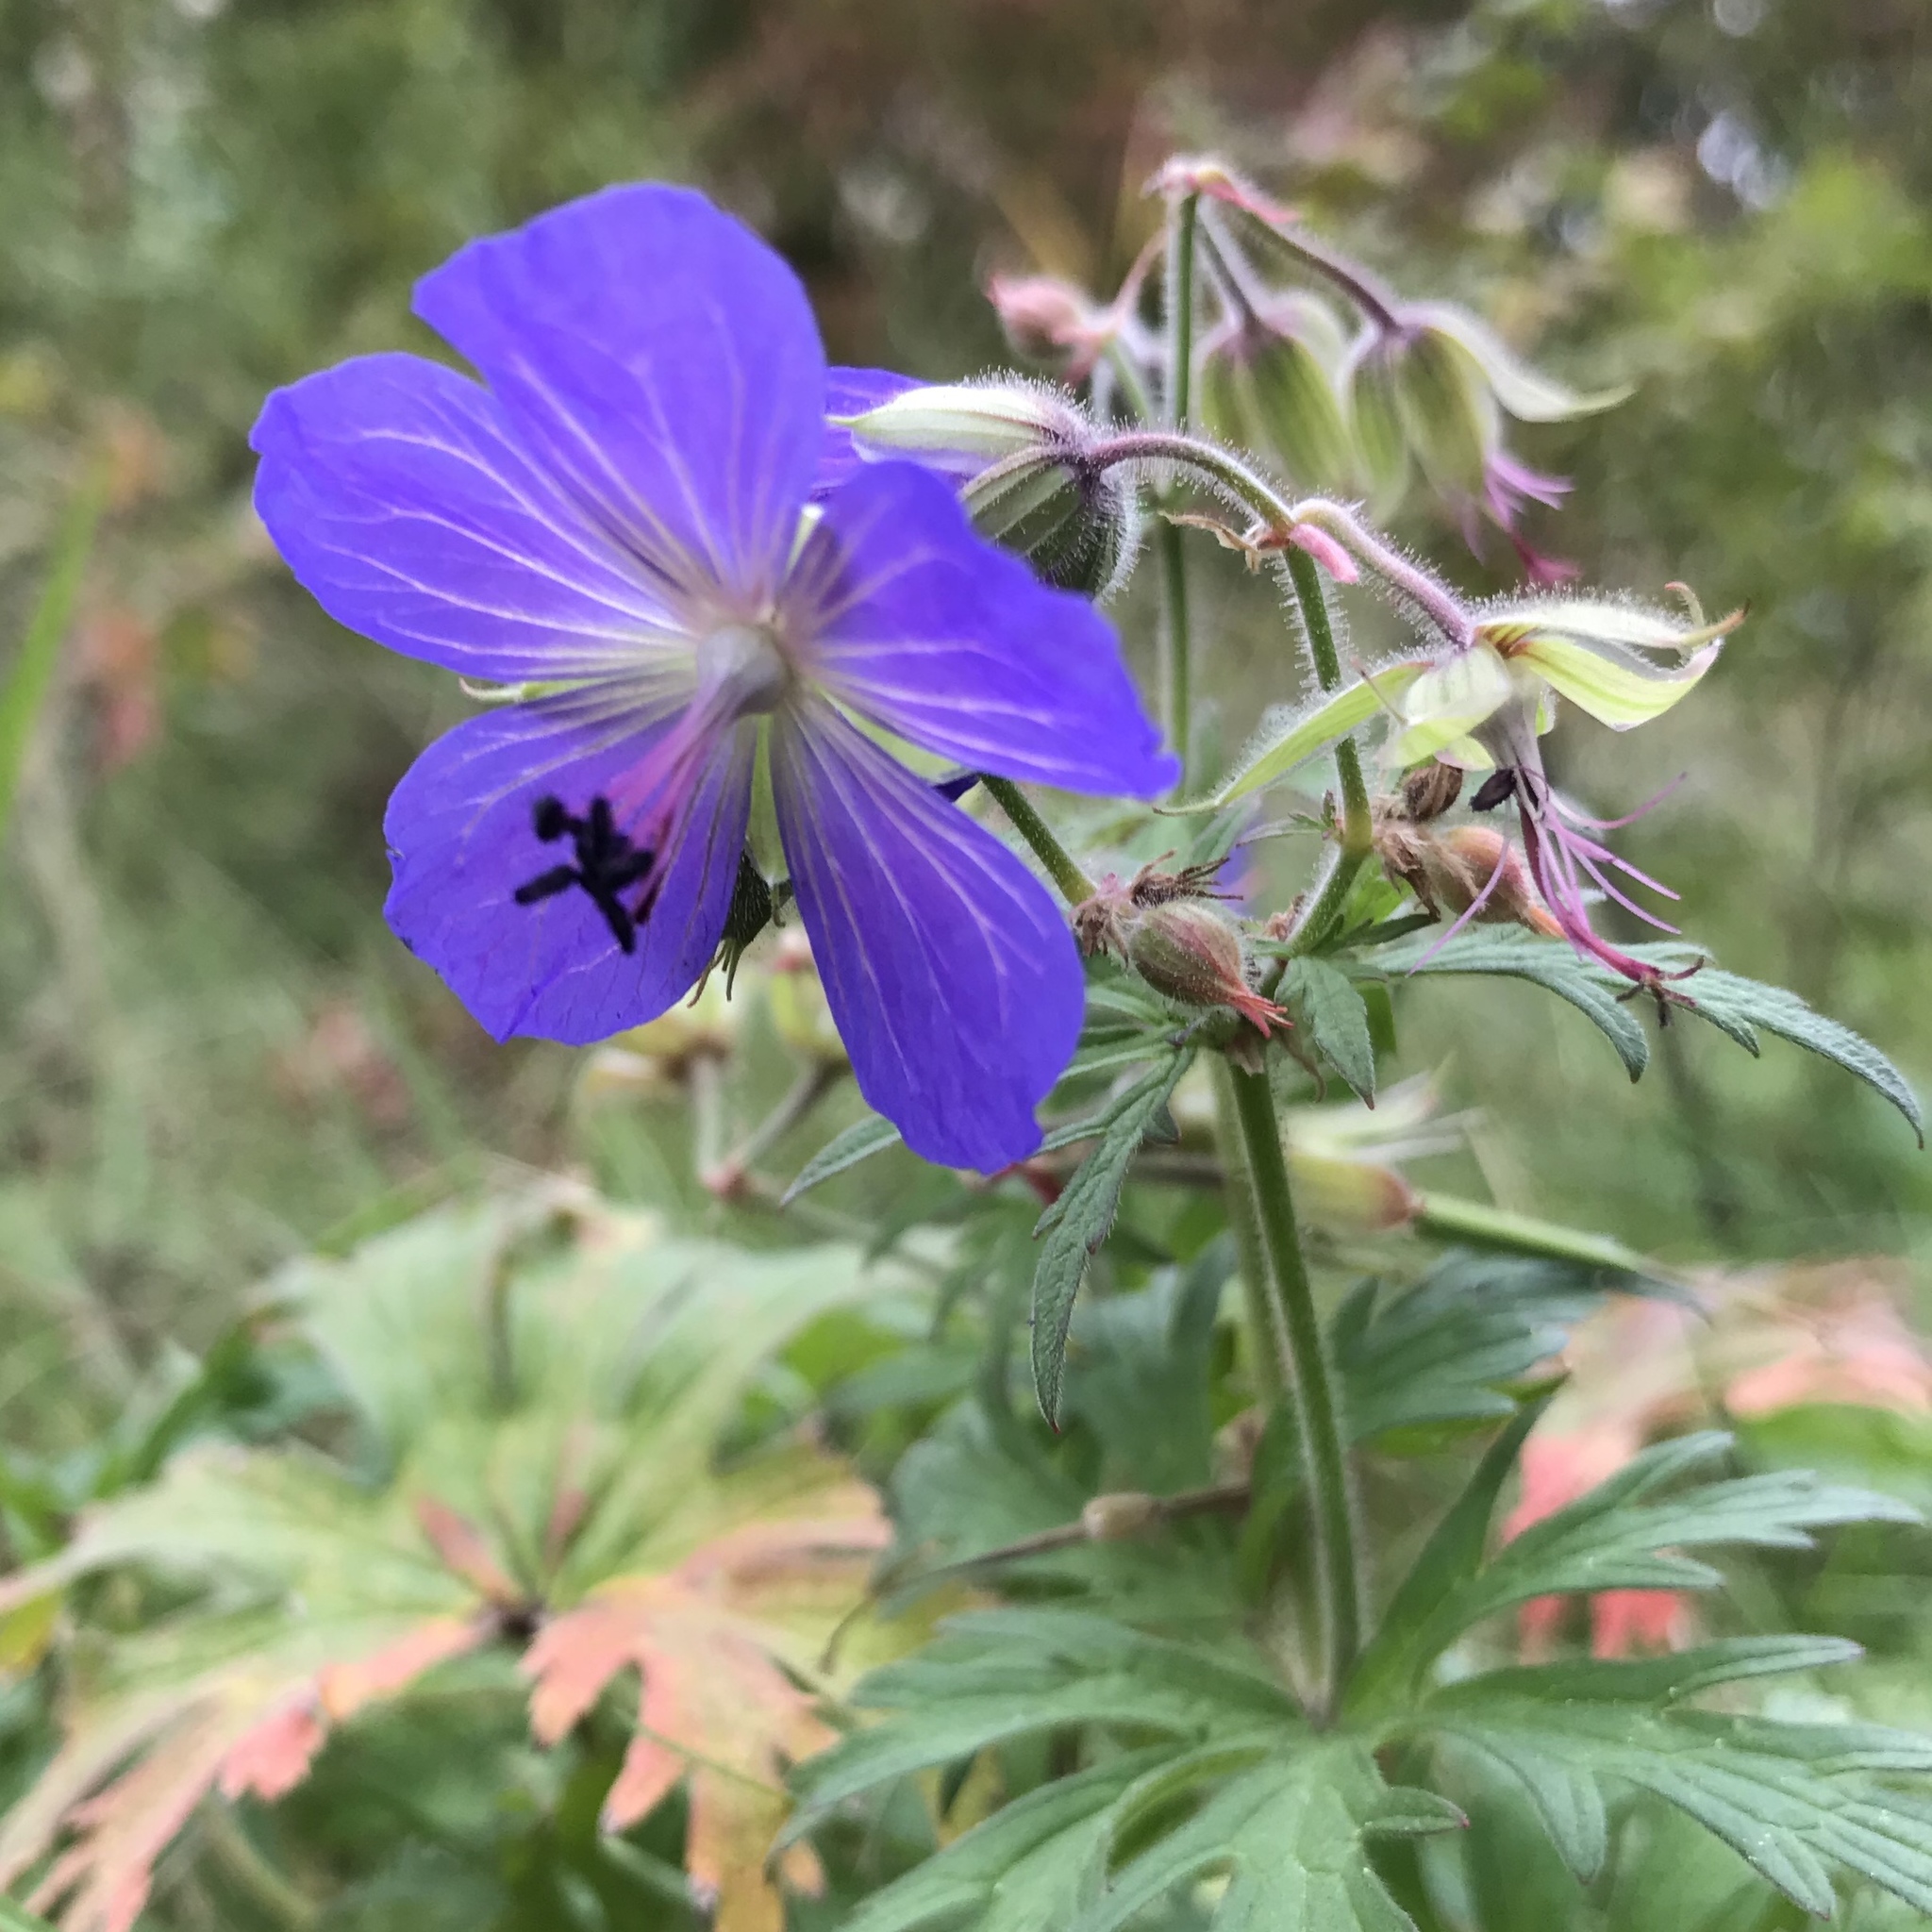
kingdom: Plantae
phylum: Tracheophyta
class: Magnoliopsida
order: Geraniales
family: Geraniaceae
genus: Geranium
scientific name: Geranium pratense
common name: Meadow crane's-bill
